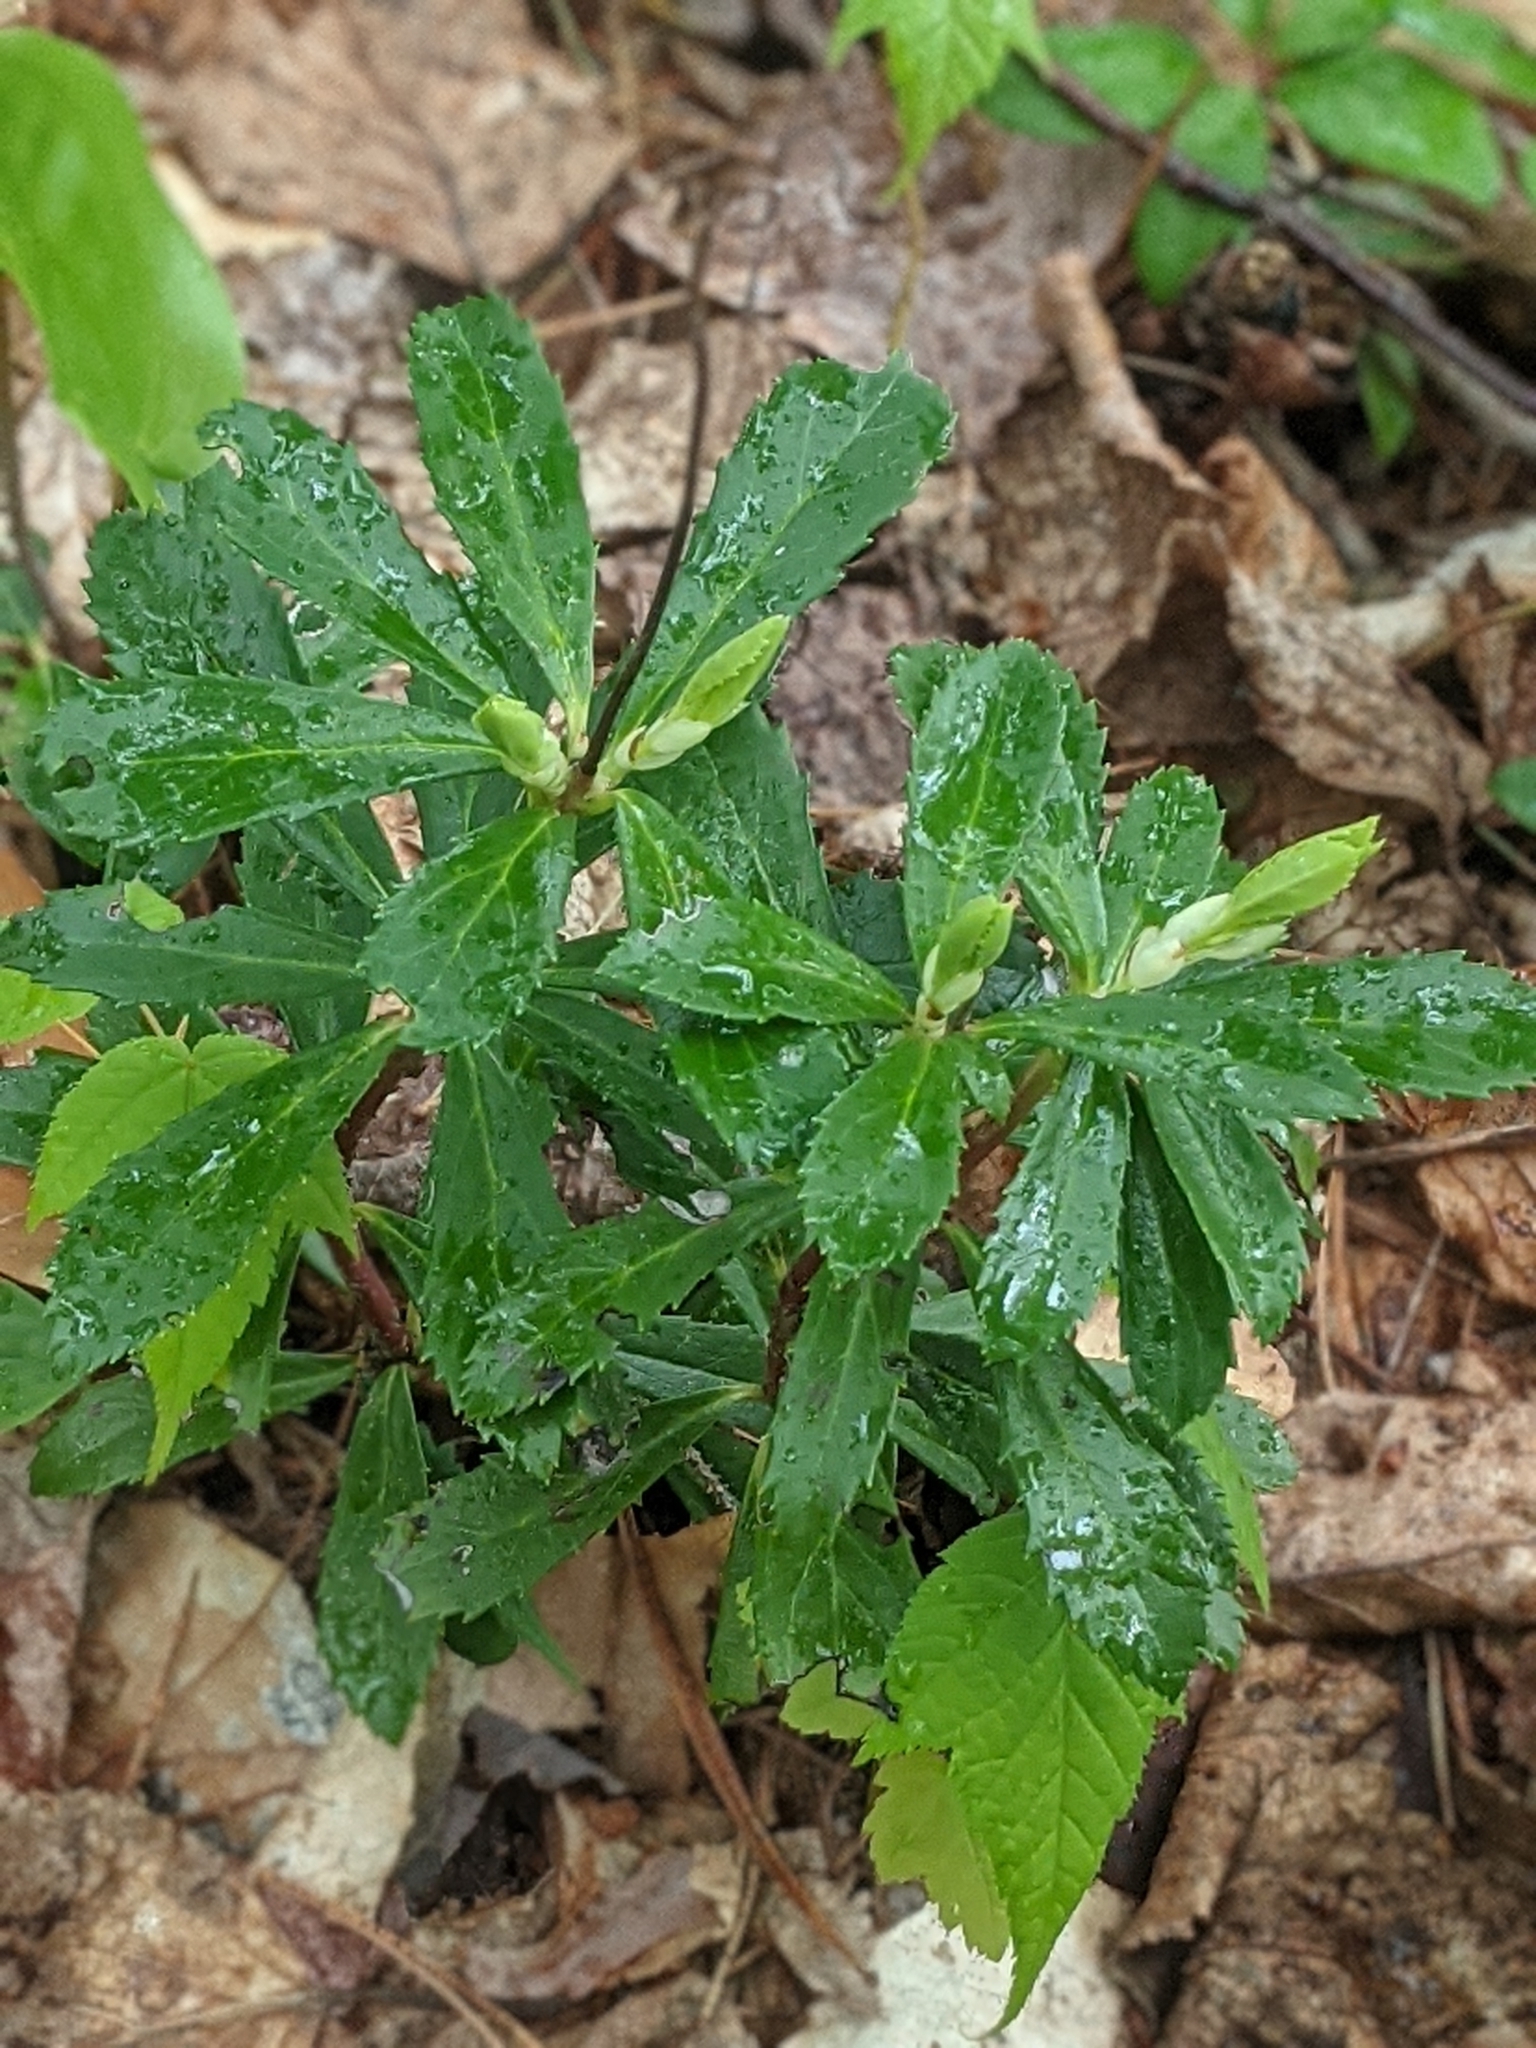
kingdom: Plantae
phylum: Tracheophyta
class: Magnoliopsida
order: Ericales
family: Ericaceae
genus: Chimaphila
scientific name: Chimaphila umbellata
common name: Pipsissewa
